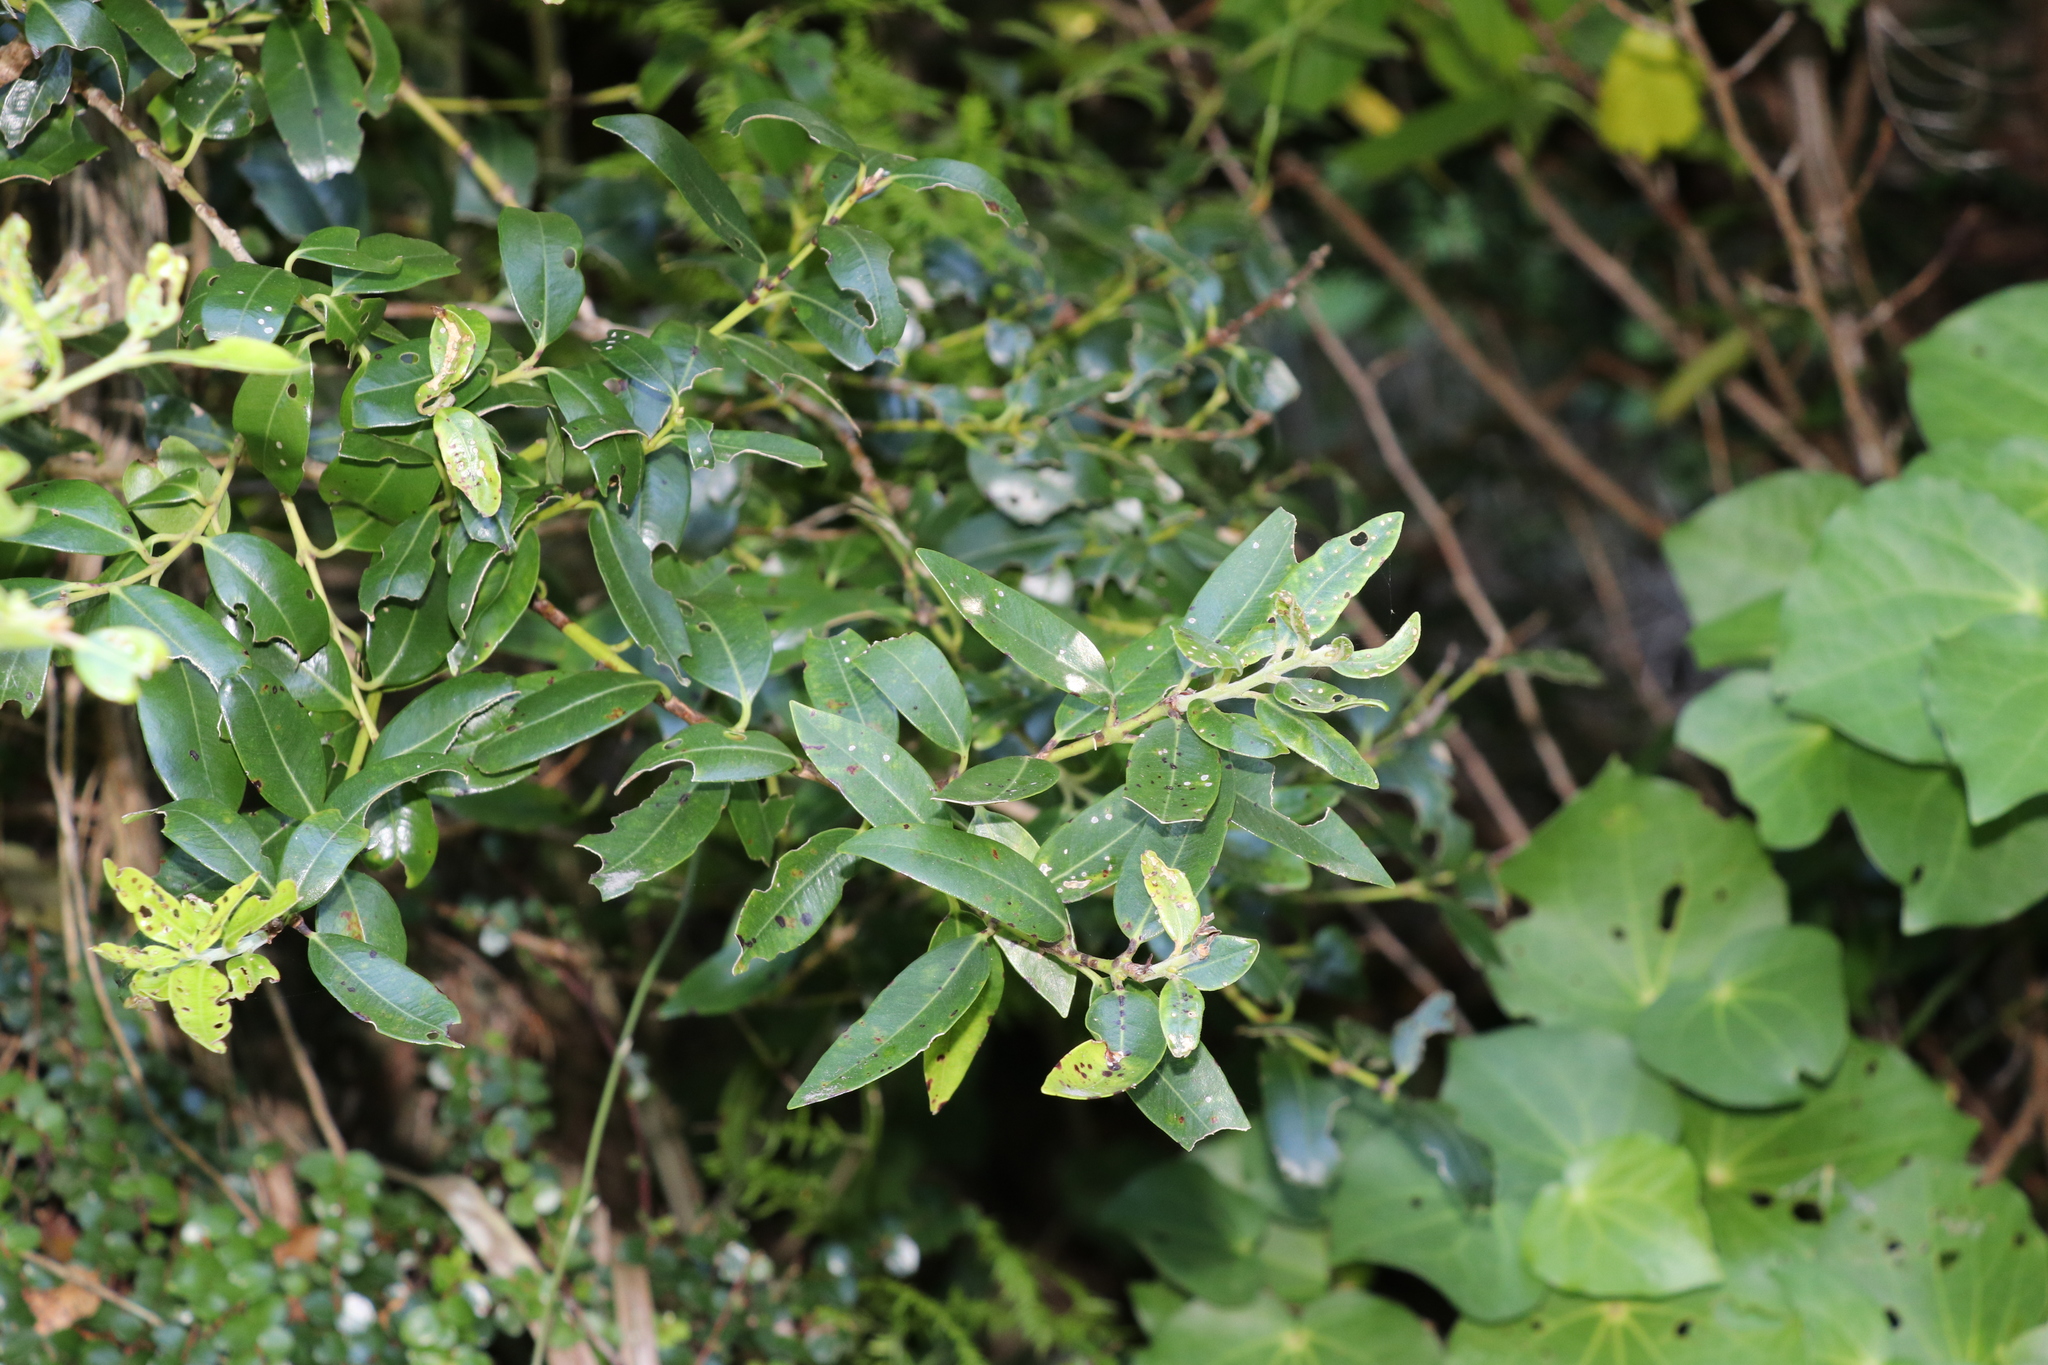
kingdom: Plantae
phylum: Tracheophyta
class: Magnoliopsida
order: Myrtales
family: Myrtaceae
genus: Metrosideros
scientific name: Metrosideros robusta
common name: Northern rata
